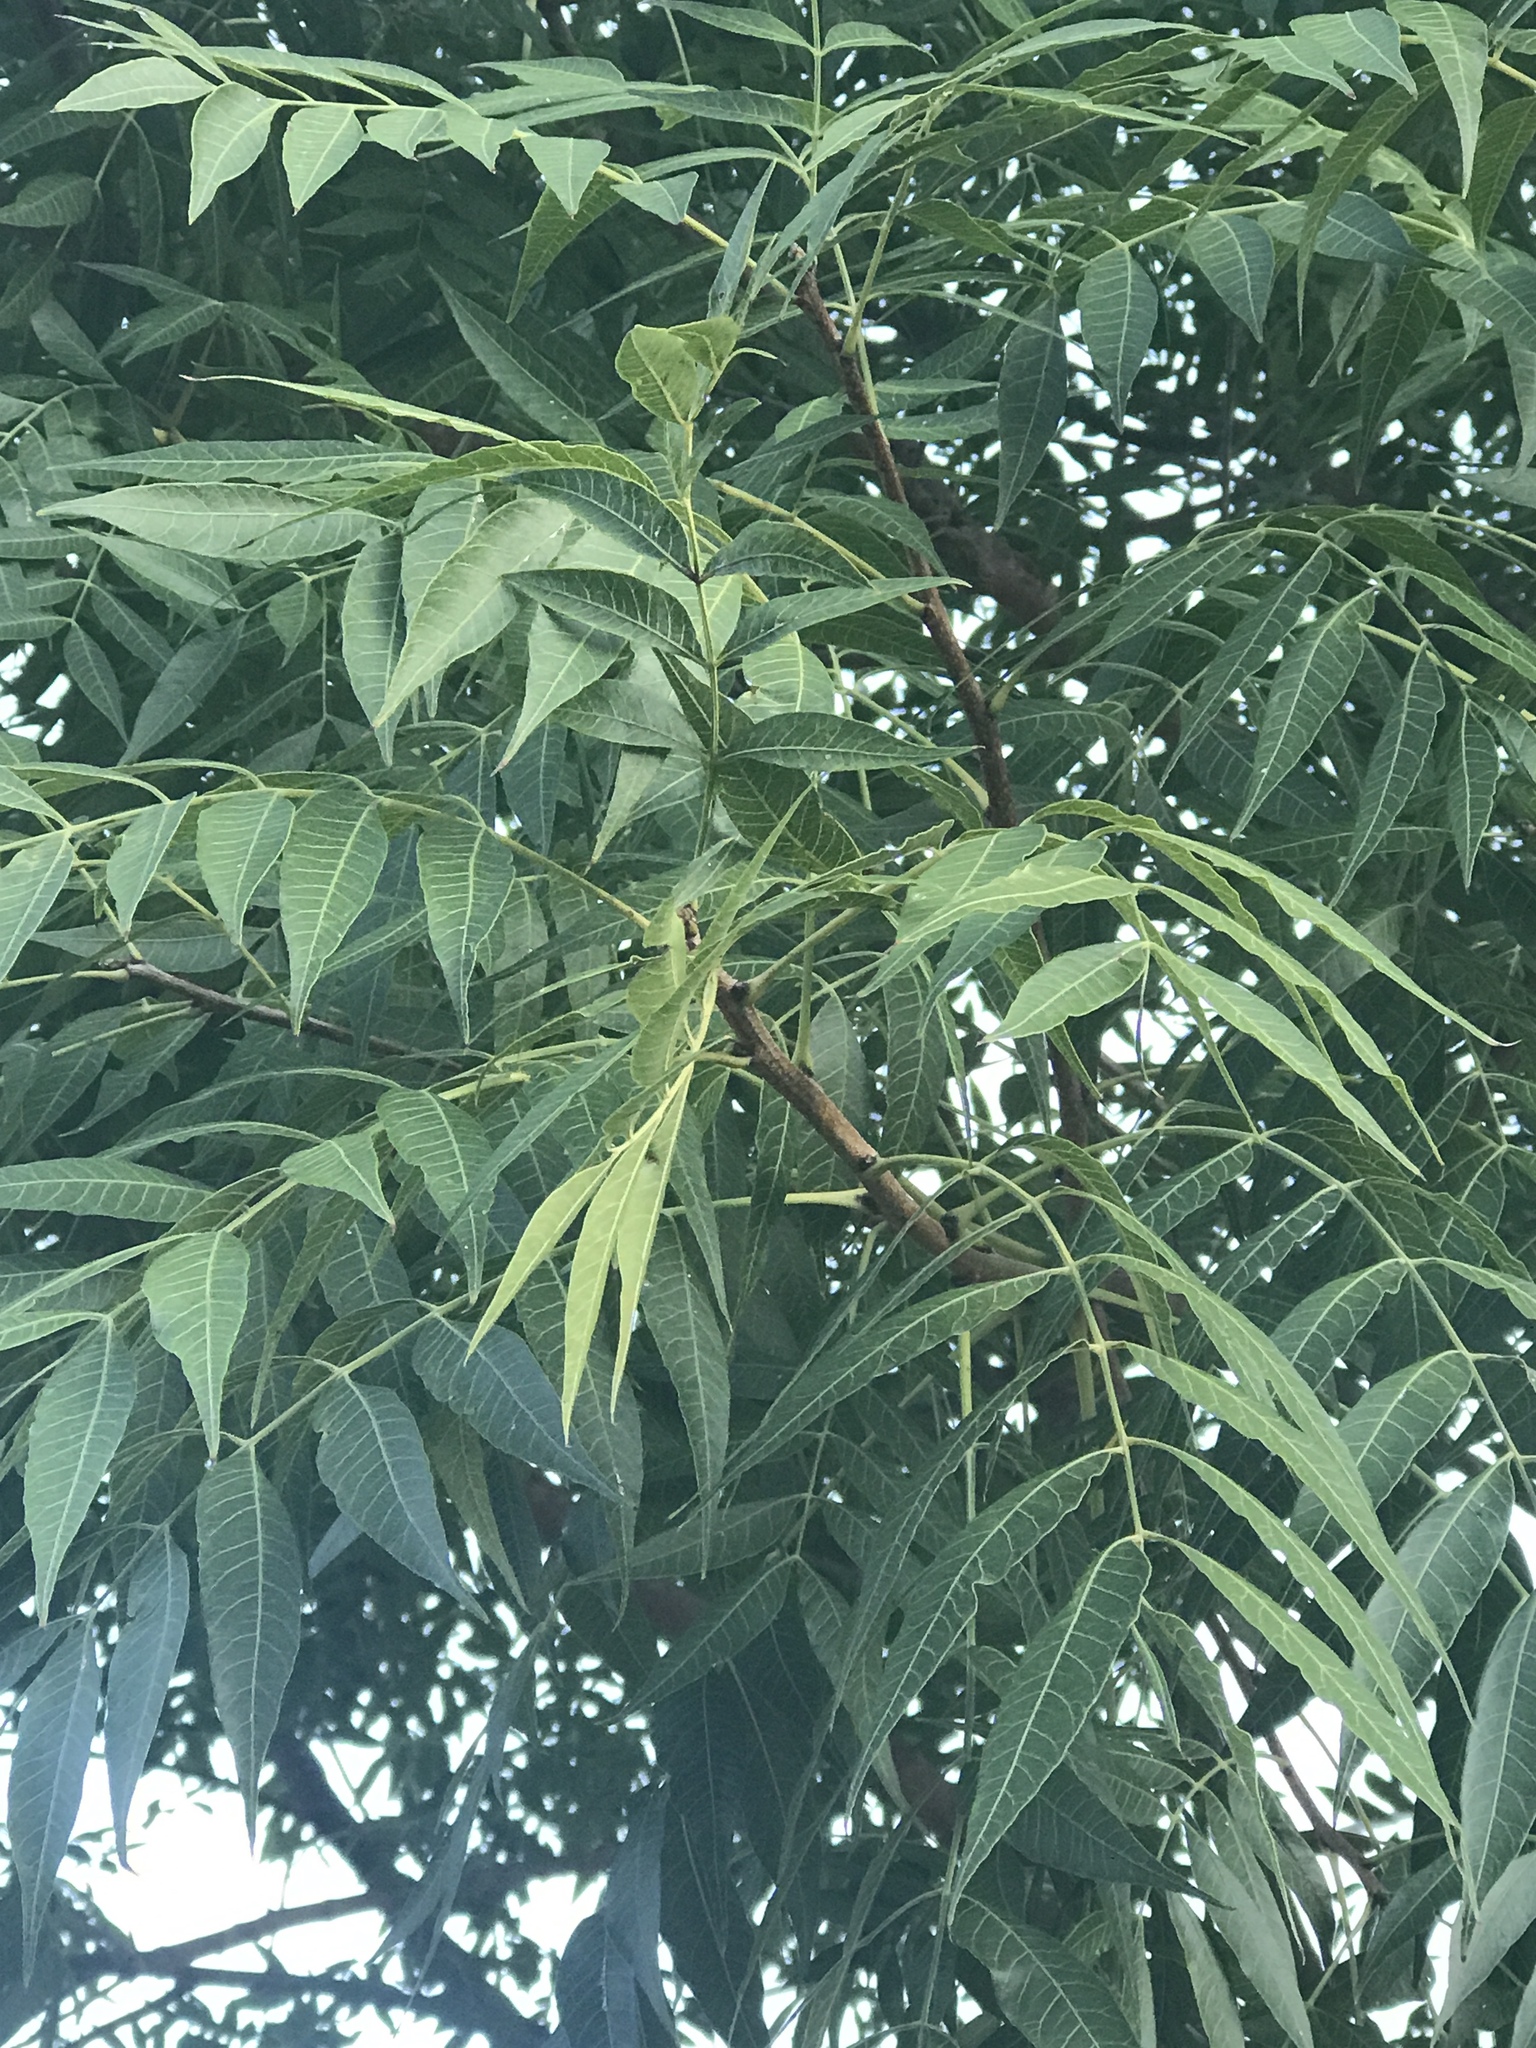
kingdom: Plantae
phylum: Tracheophyta
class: Magnoliopsida
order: Sapindales
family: Anacardiaceae
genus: Pistacia
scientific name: Pistacia chinensis
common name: Chinese pistache
